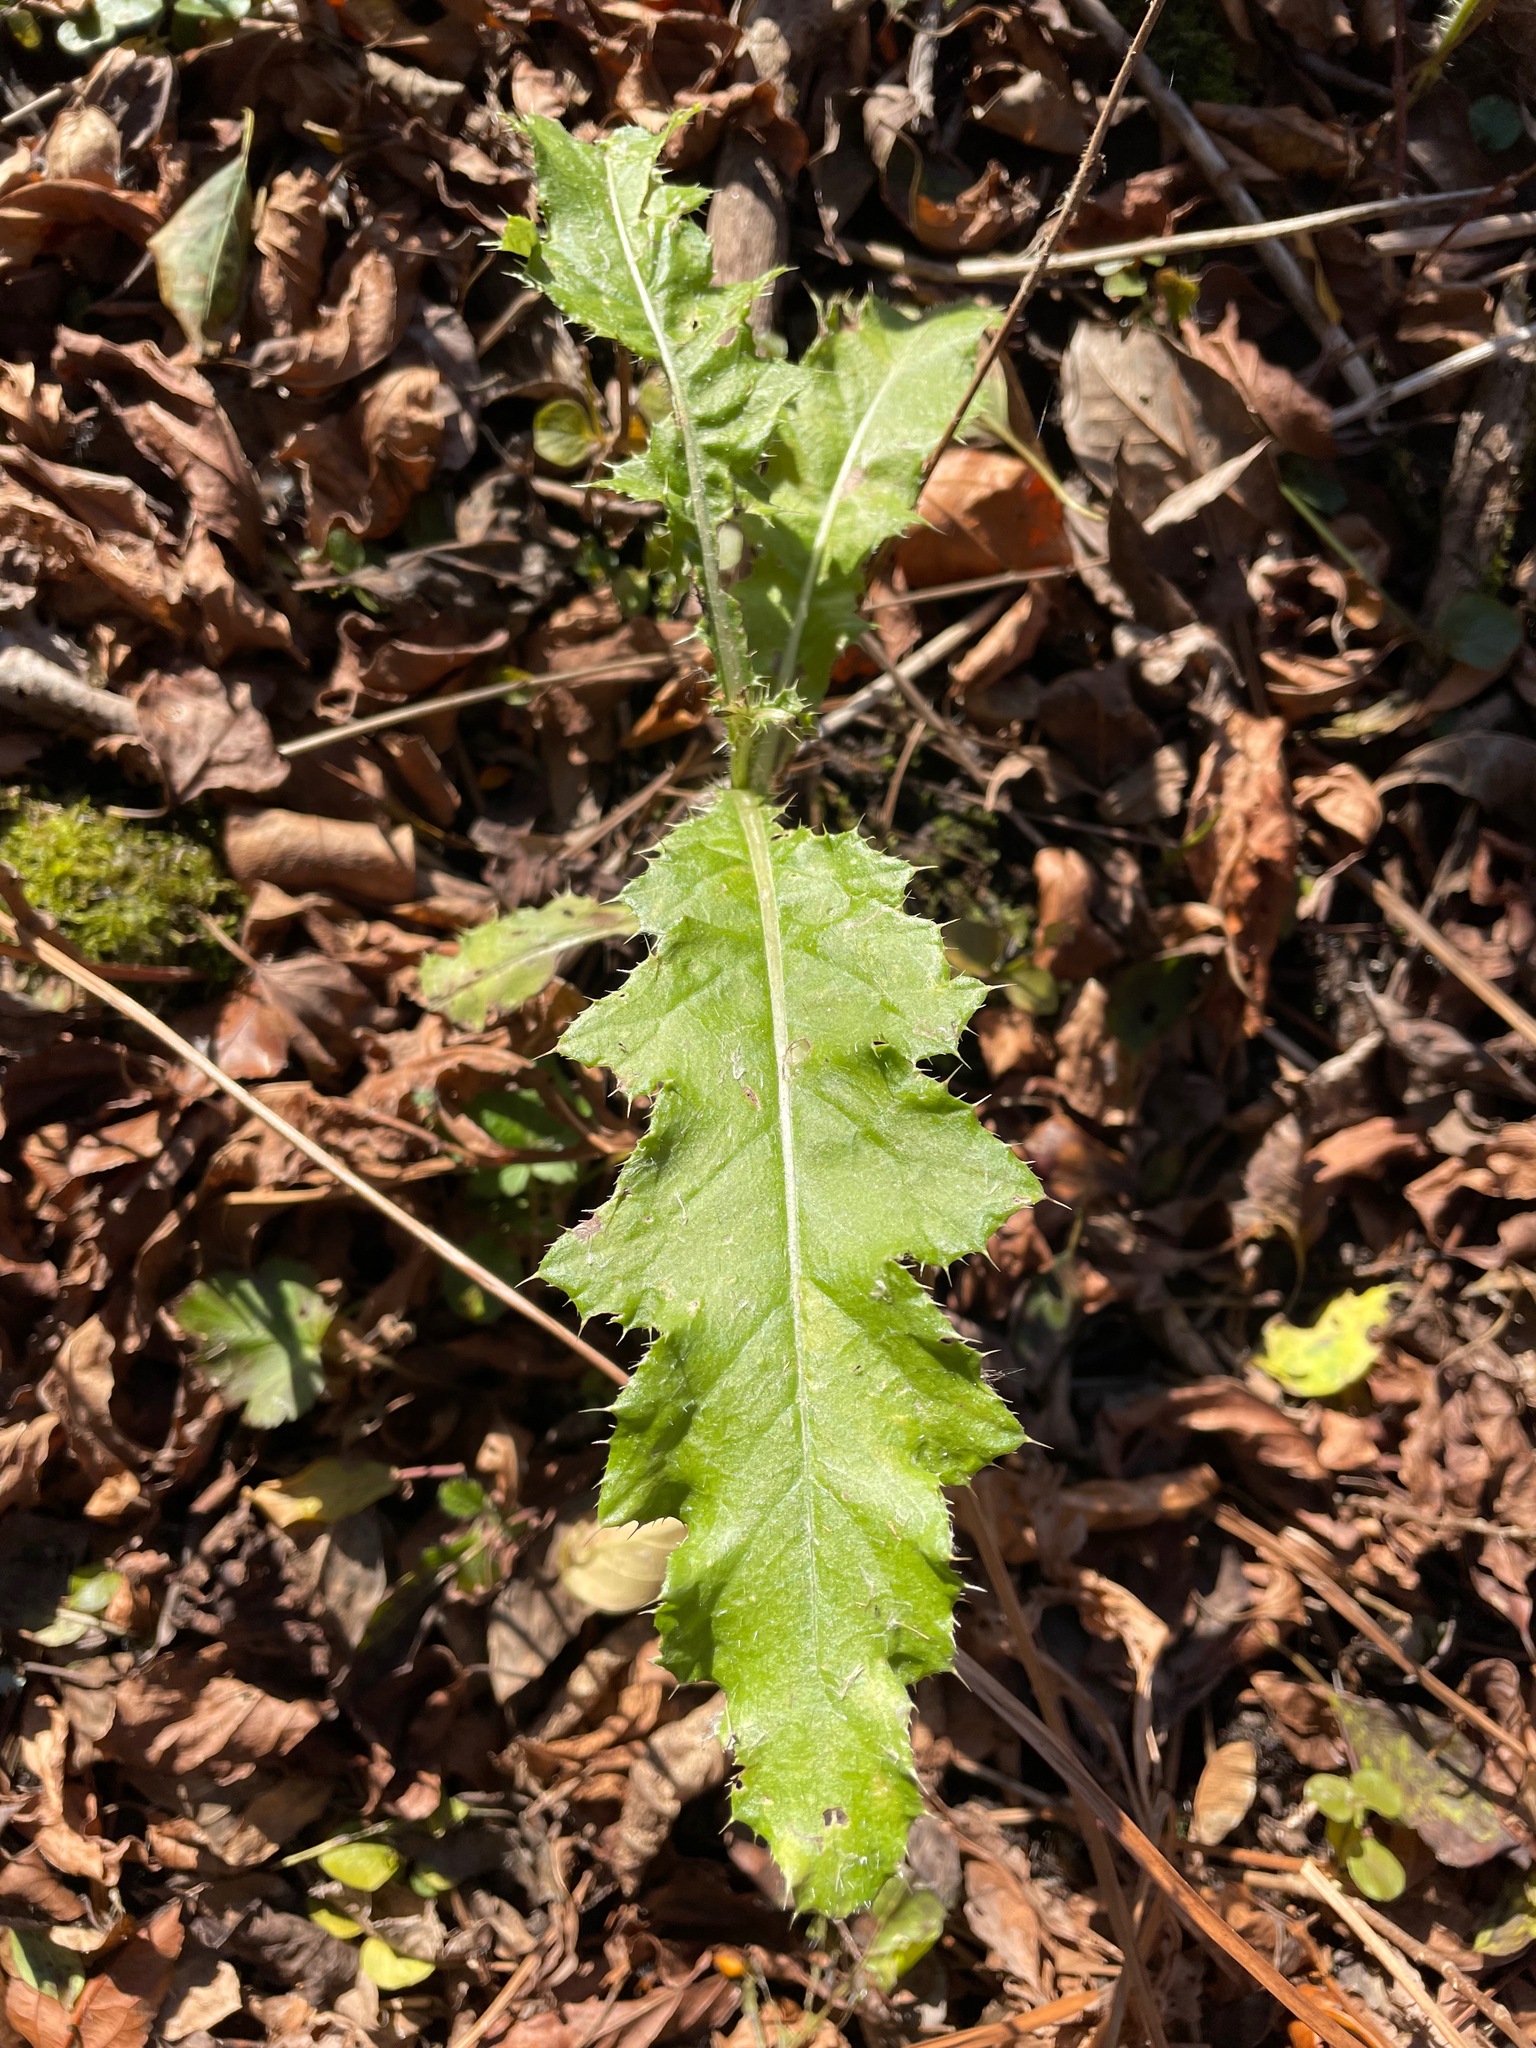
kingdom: Plantae
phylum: Tracheophyta
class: Magnoliopsida
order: Asterales
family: Asteraceae
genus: Cirsium
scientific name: Cirsium arvense
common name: Creeping thistle
